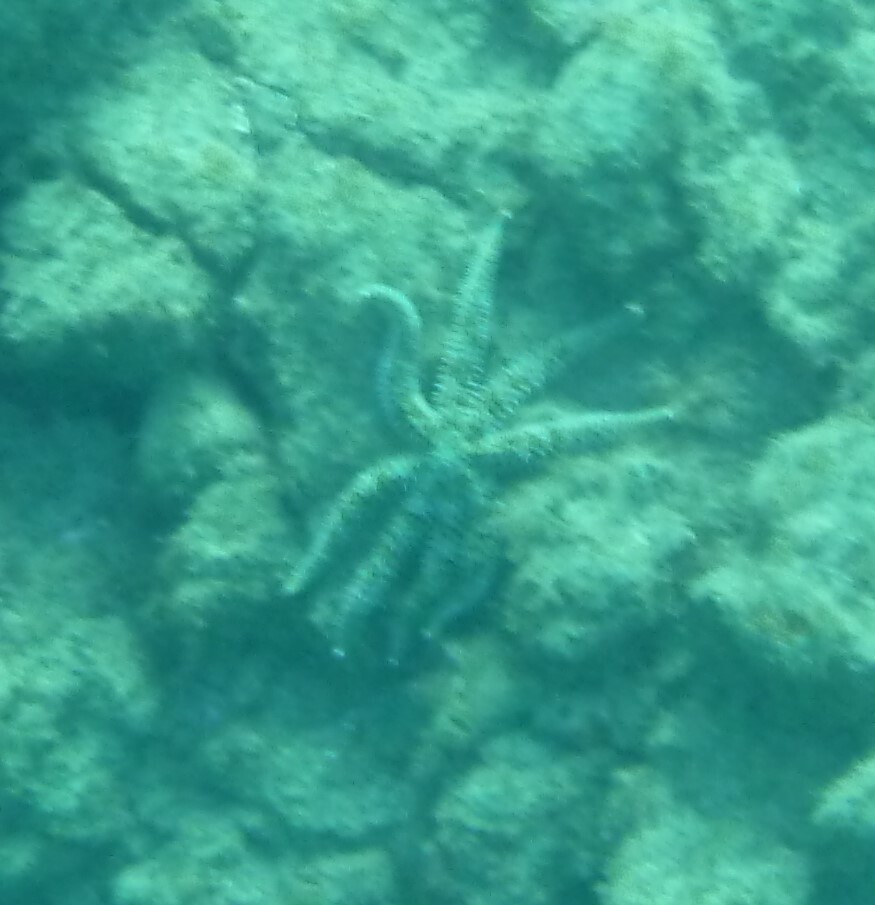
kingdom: Animalia
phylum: Echinodermata
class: Asteroidea
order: Forcipulatida
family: Asteriidae
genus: Coscinasterias
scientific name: Coscinasterias tenuispina
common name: Blue spiny starfish
